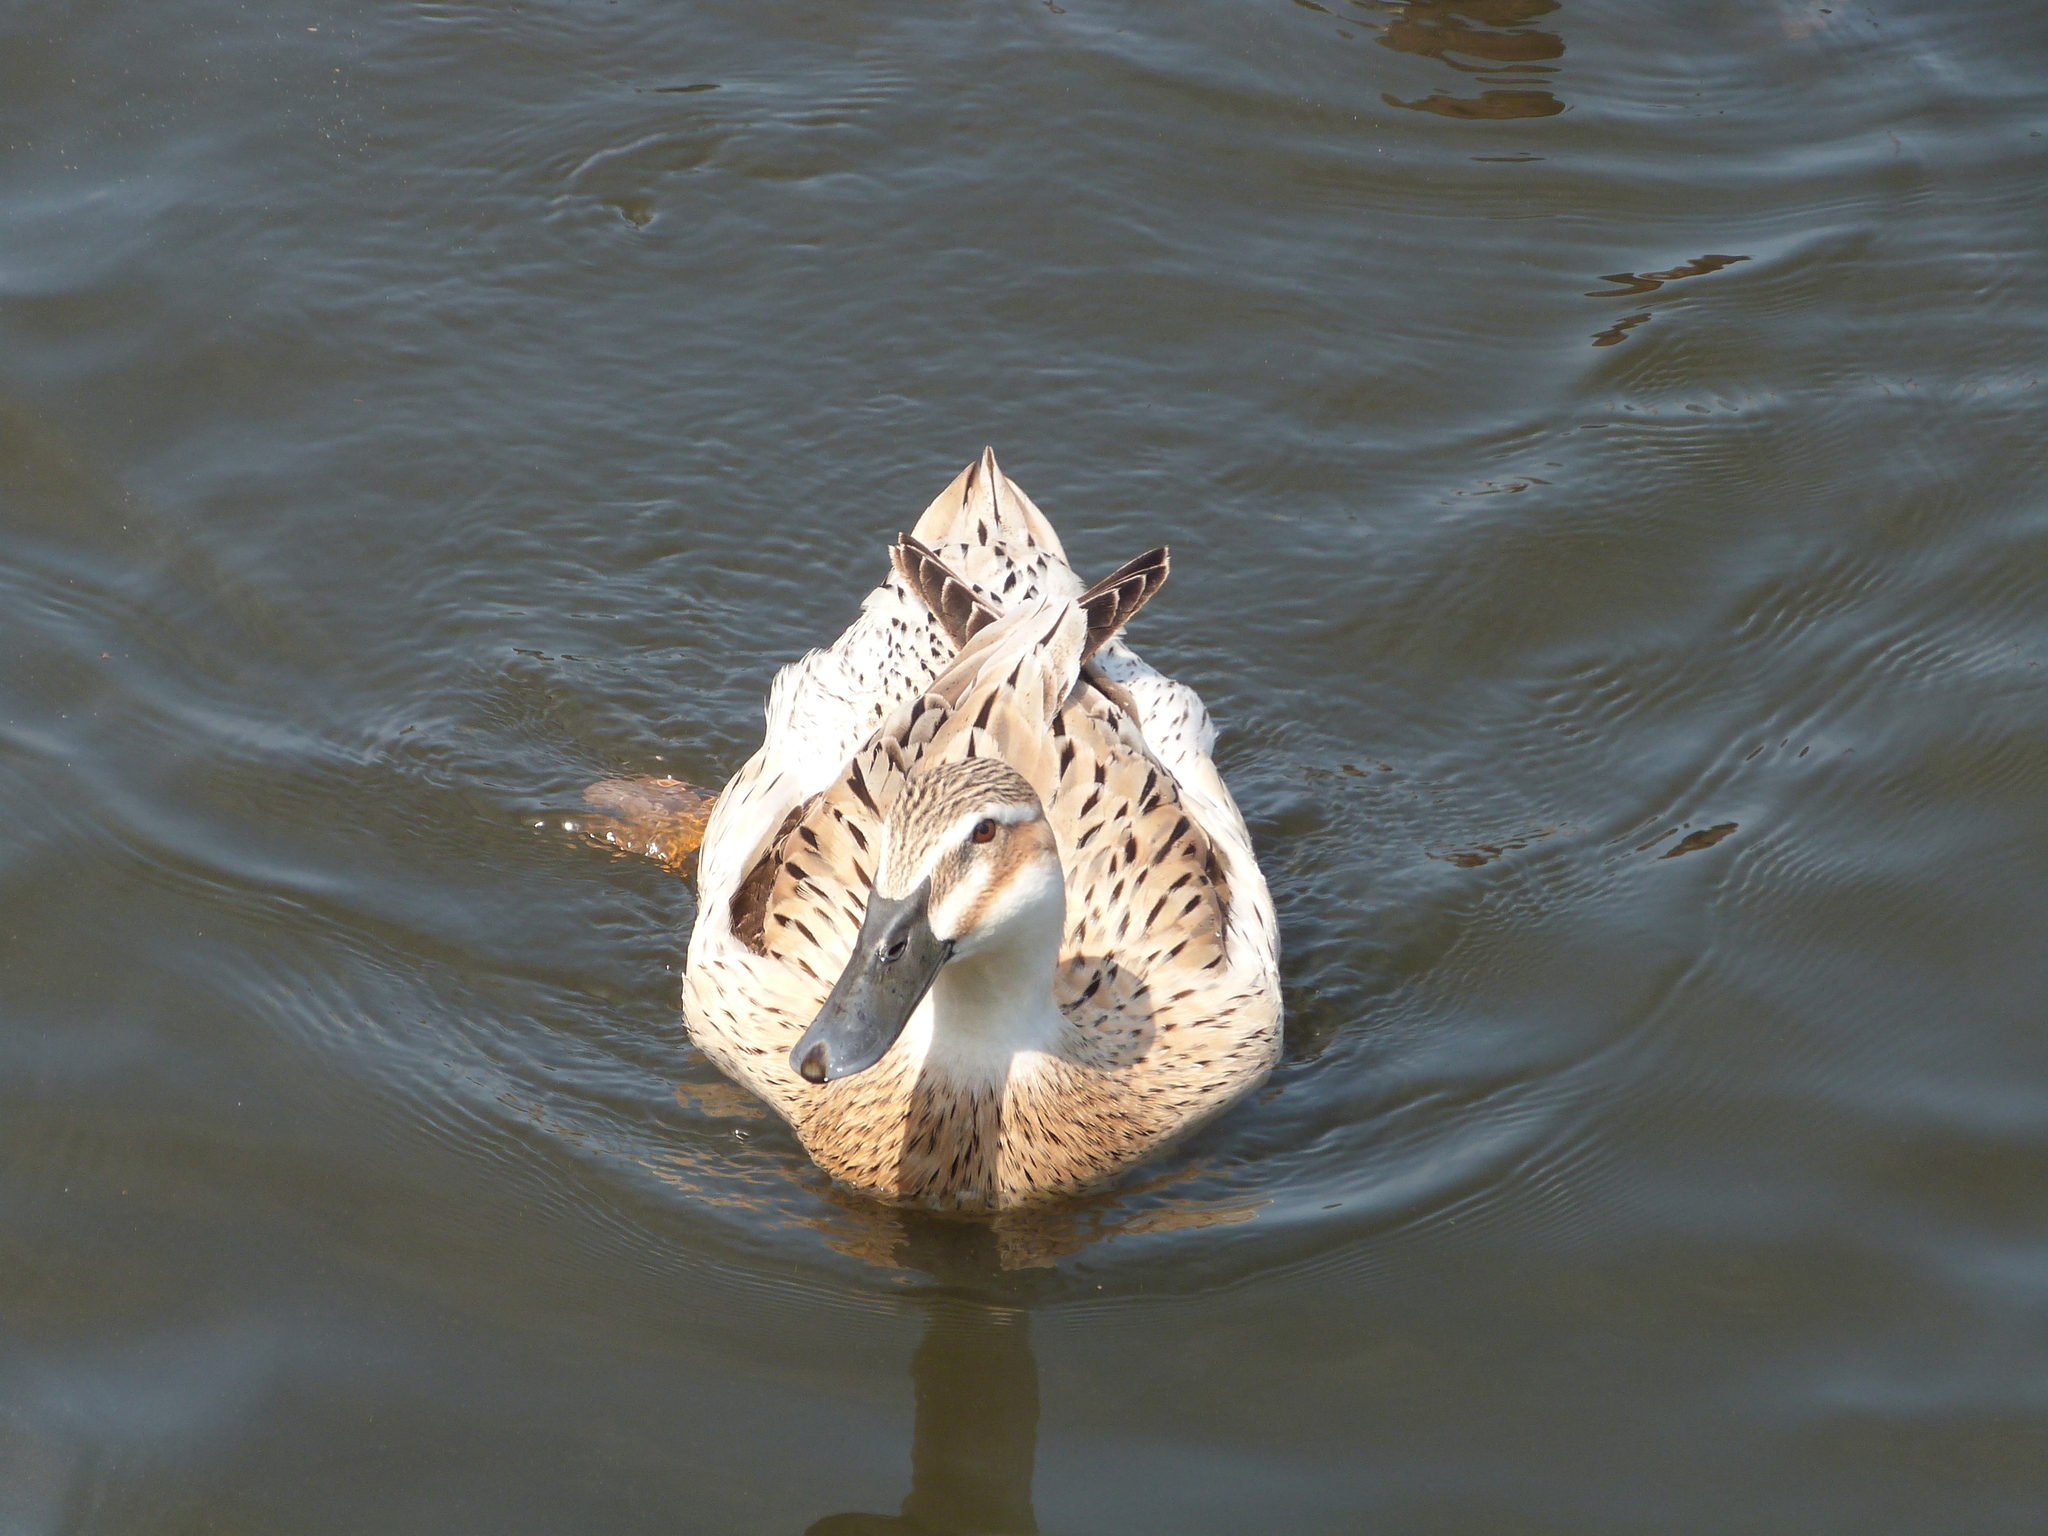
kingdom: Animalia
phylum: Chordata
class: Aves
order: Anseriformes
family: Anatidae
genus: Anas
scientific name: Anas platyrhynchos
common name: Mallard
